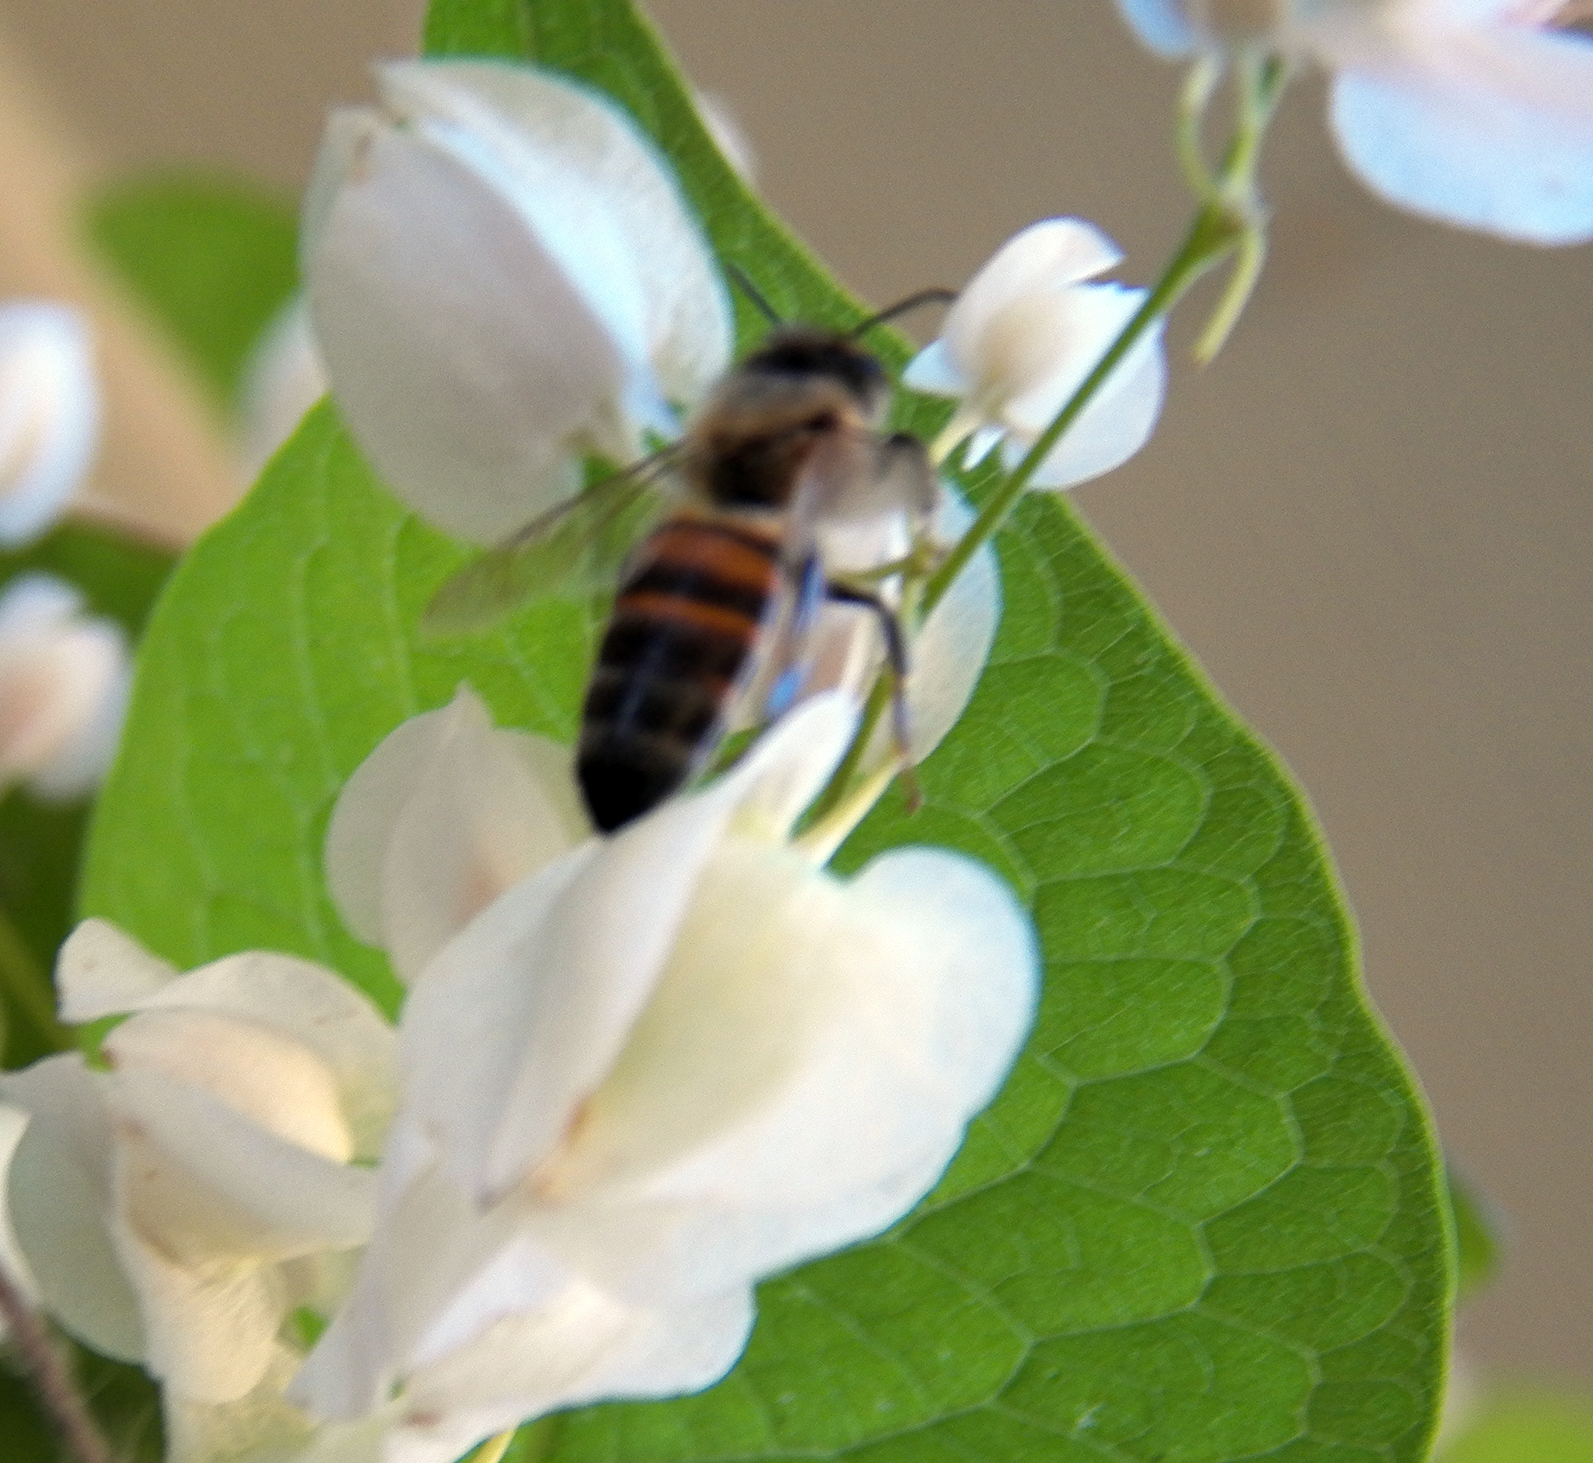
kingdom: Animalia
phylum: Arthropoda
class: Insecta
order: Hymenoptera
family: Apidae
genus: Apis
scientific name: Apis mellifera
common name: Honey bee
